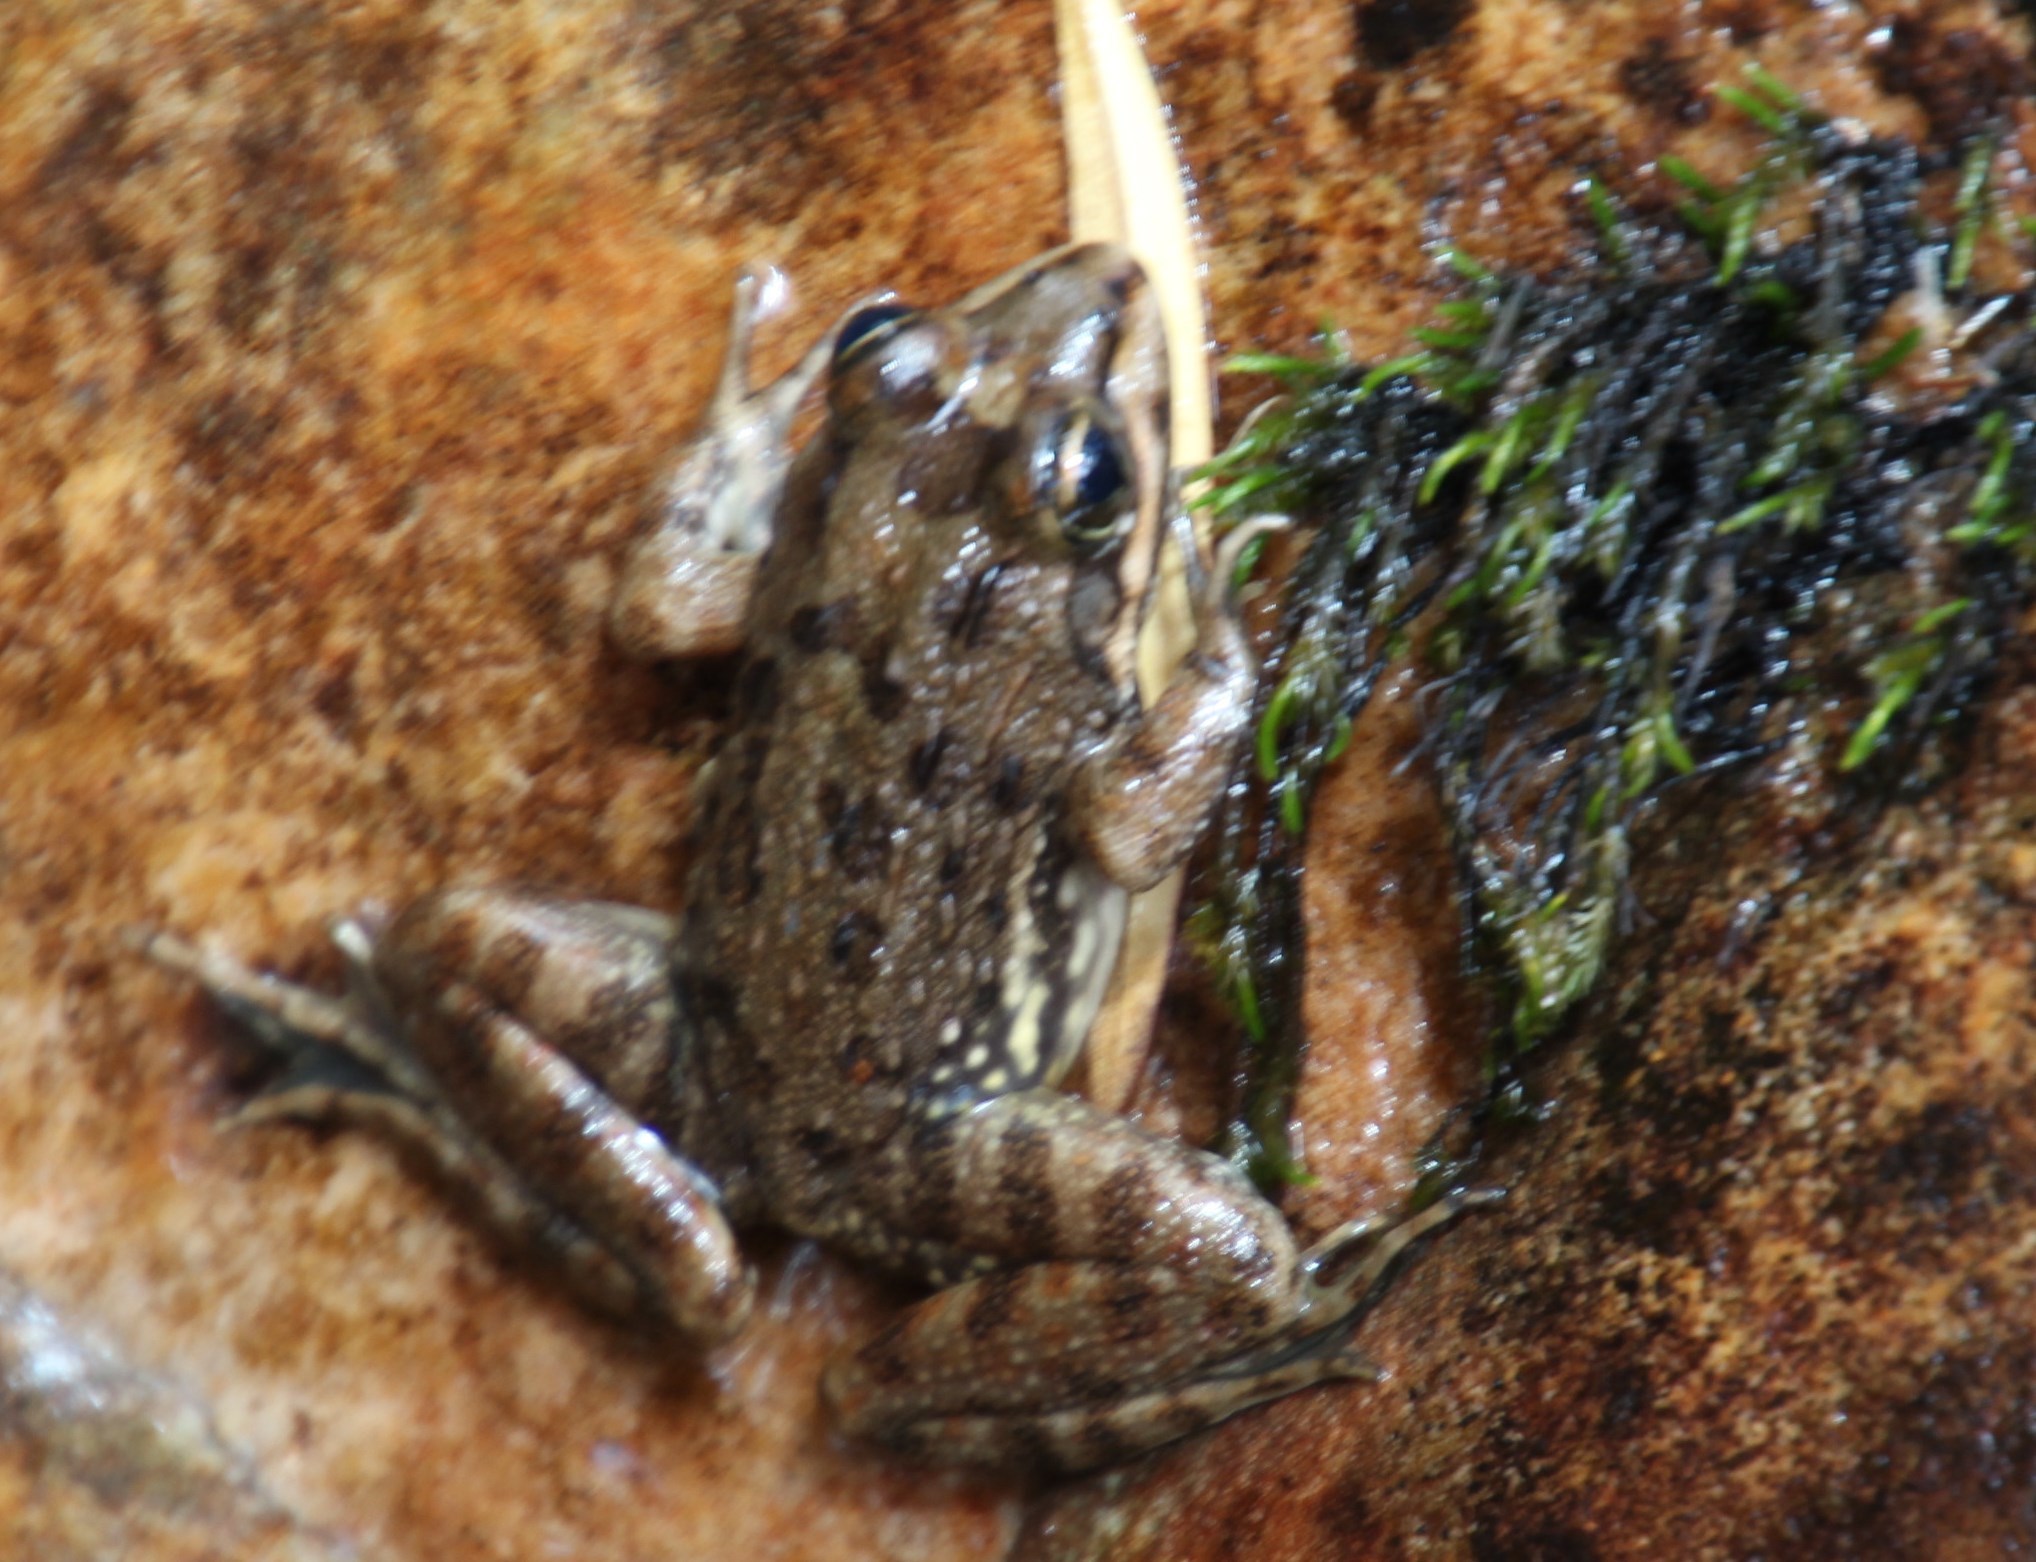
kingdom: Animalia
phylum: Chordata
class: Amphibia
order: Anura
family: Pyxicephalidae
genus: Amietia
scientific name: Amietia fuscigula
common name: Cape rana
